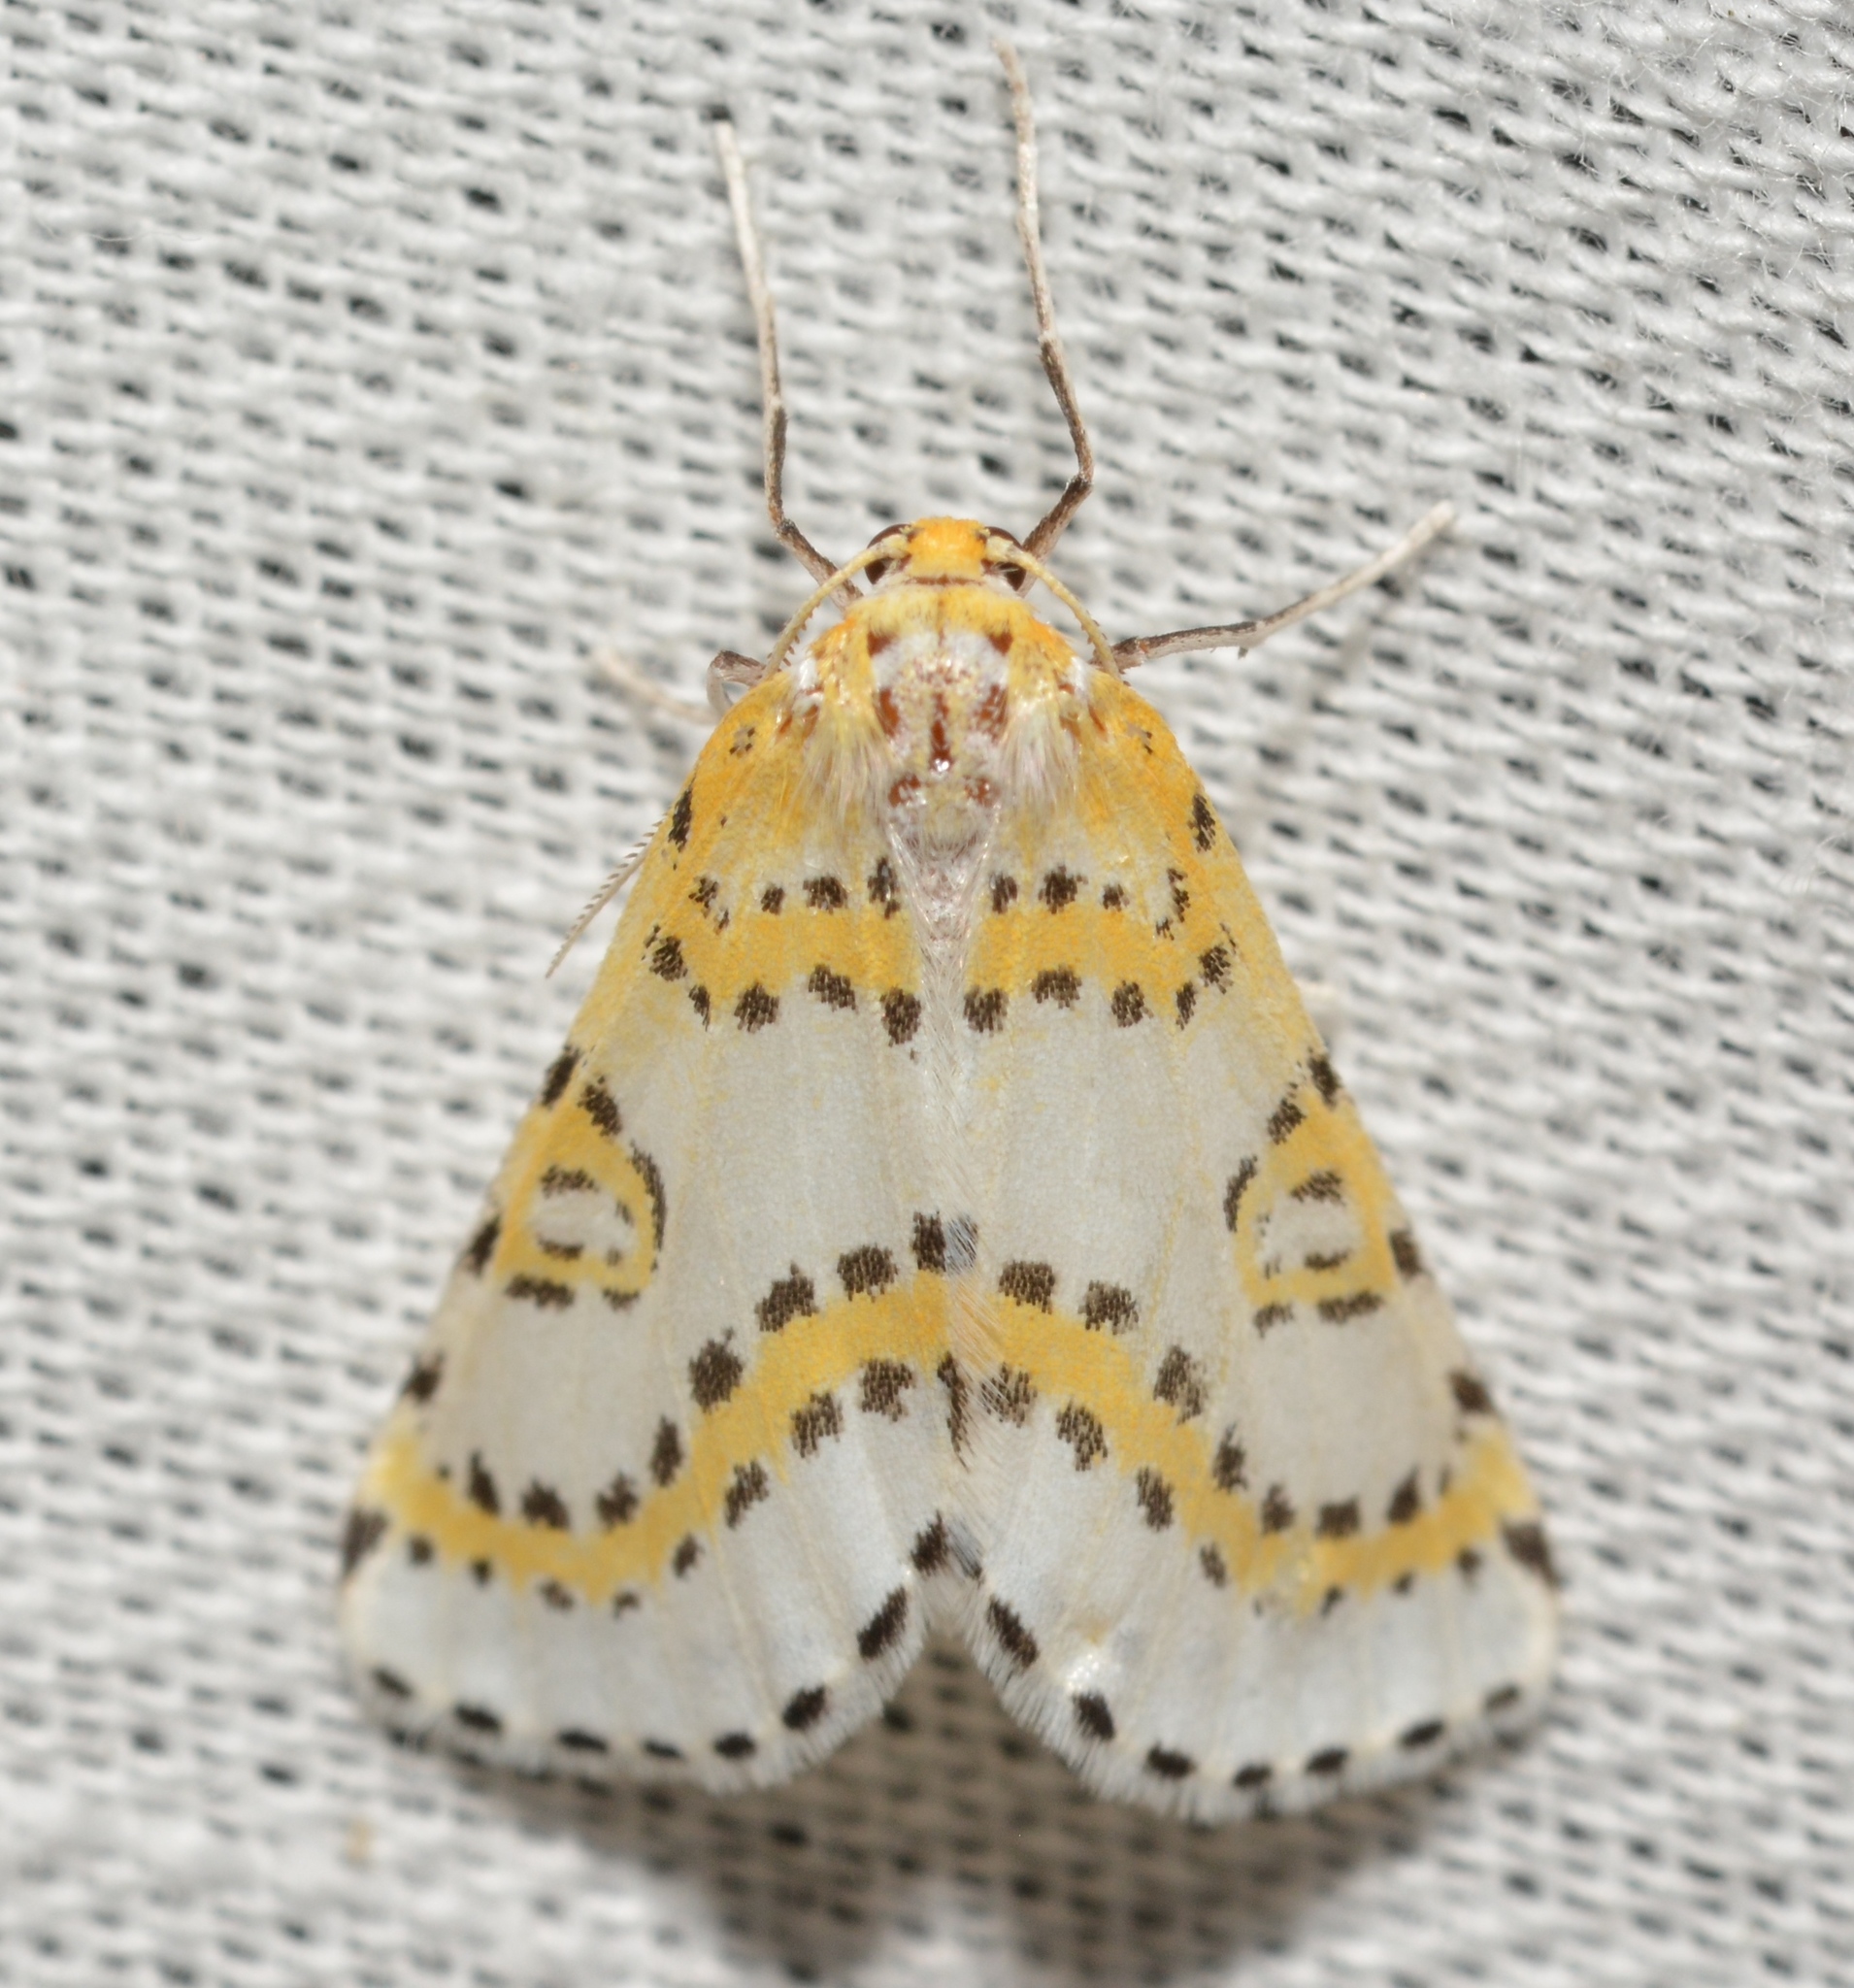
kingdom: Animalia
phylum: Arthropoda
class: Insecta
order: Lepidoptera
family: Geometridae
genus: Philtraea
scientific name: Philtraea monillata
